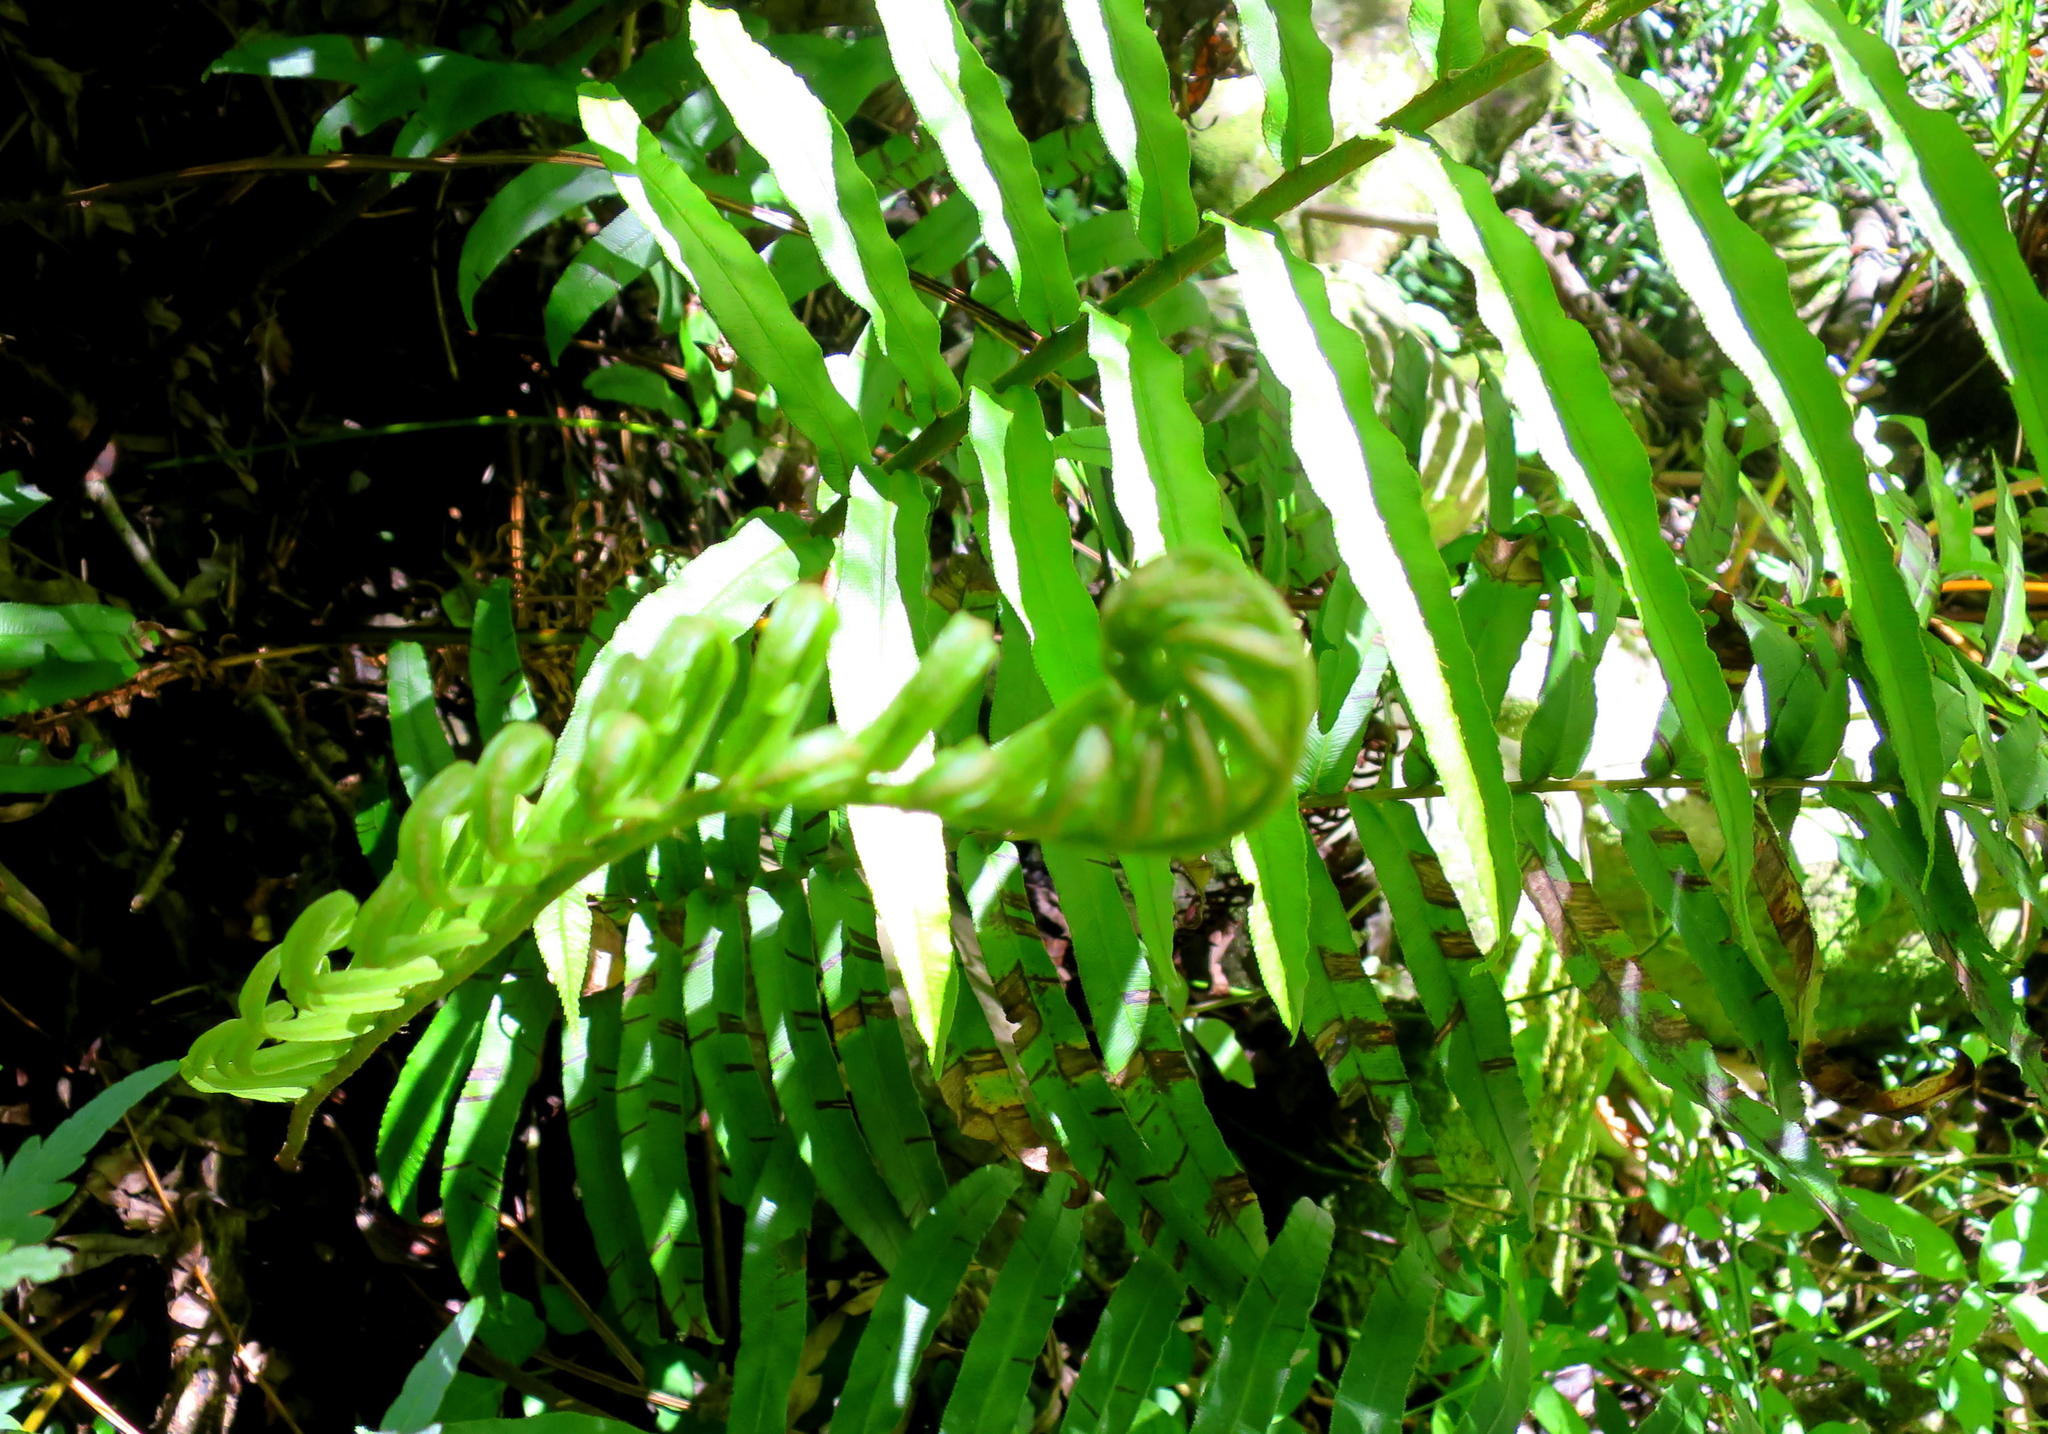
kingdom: Plantae
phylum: Tracheophyta
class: Polypodiopsida
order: Polypodiales
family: Blechnaceae
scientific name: Blechnaceae
